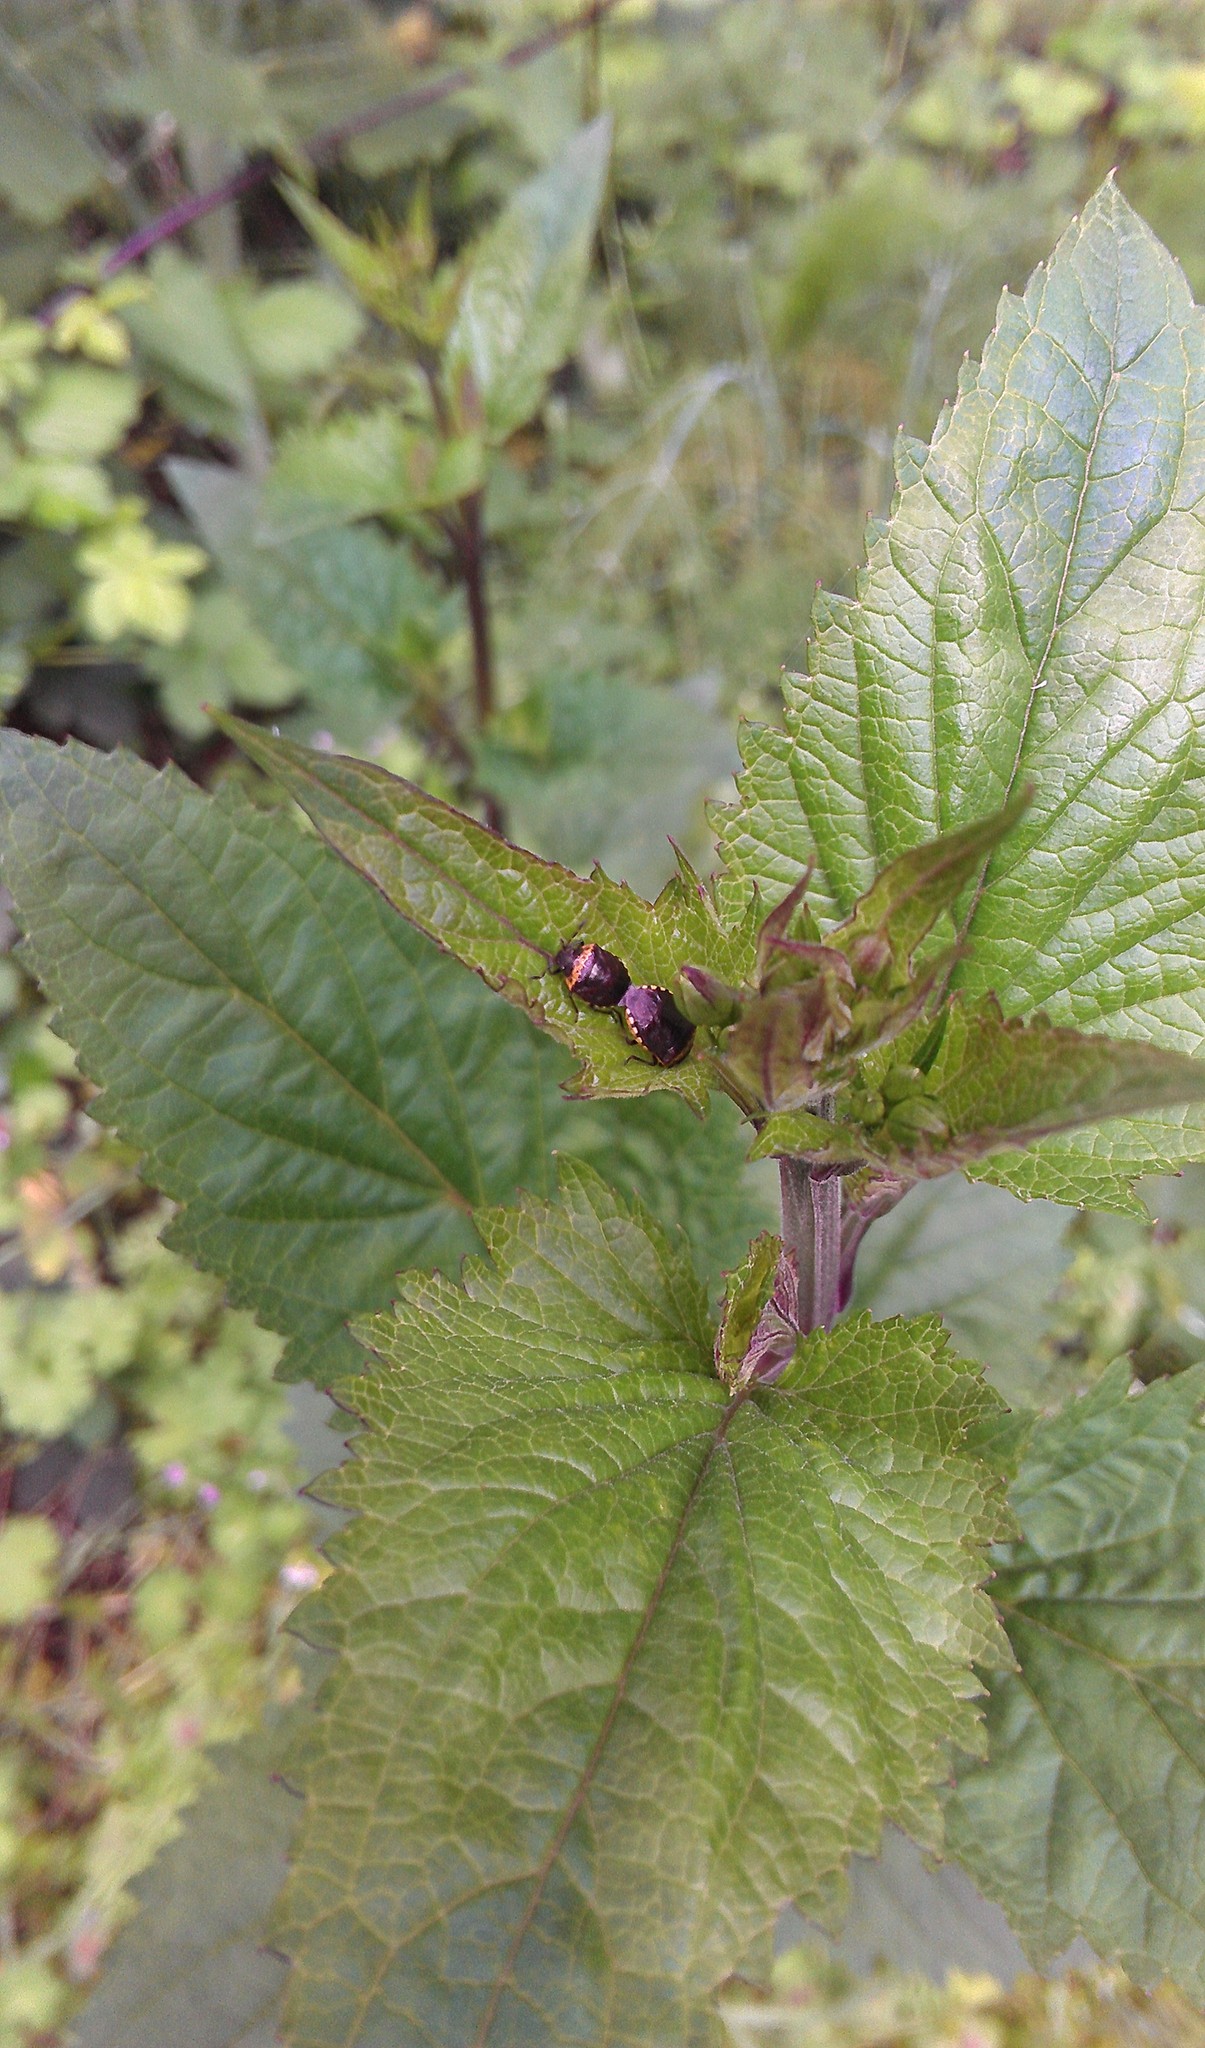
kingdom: Animalia
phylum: Arthropoda
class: Insecta
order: Hemiptera
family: Pentatomidae
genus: Cosmopepla
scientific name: Cosmopepla uhleri
